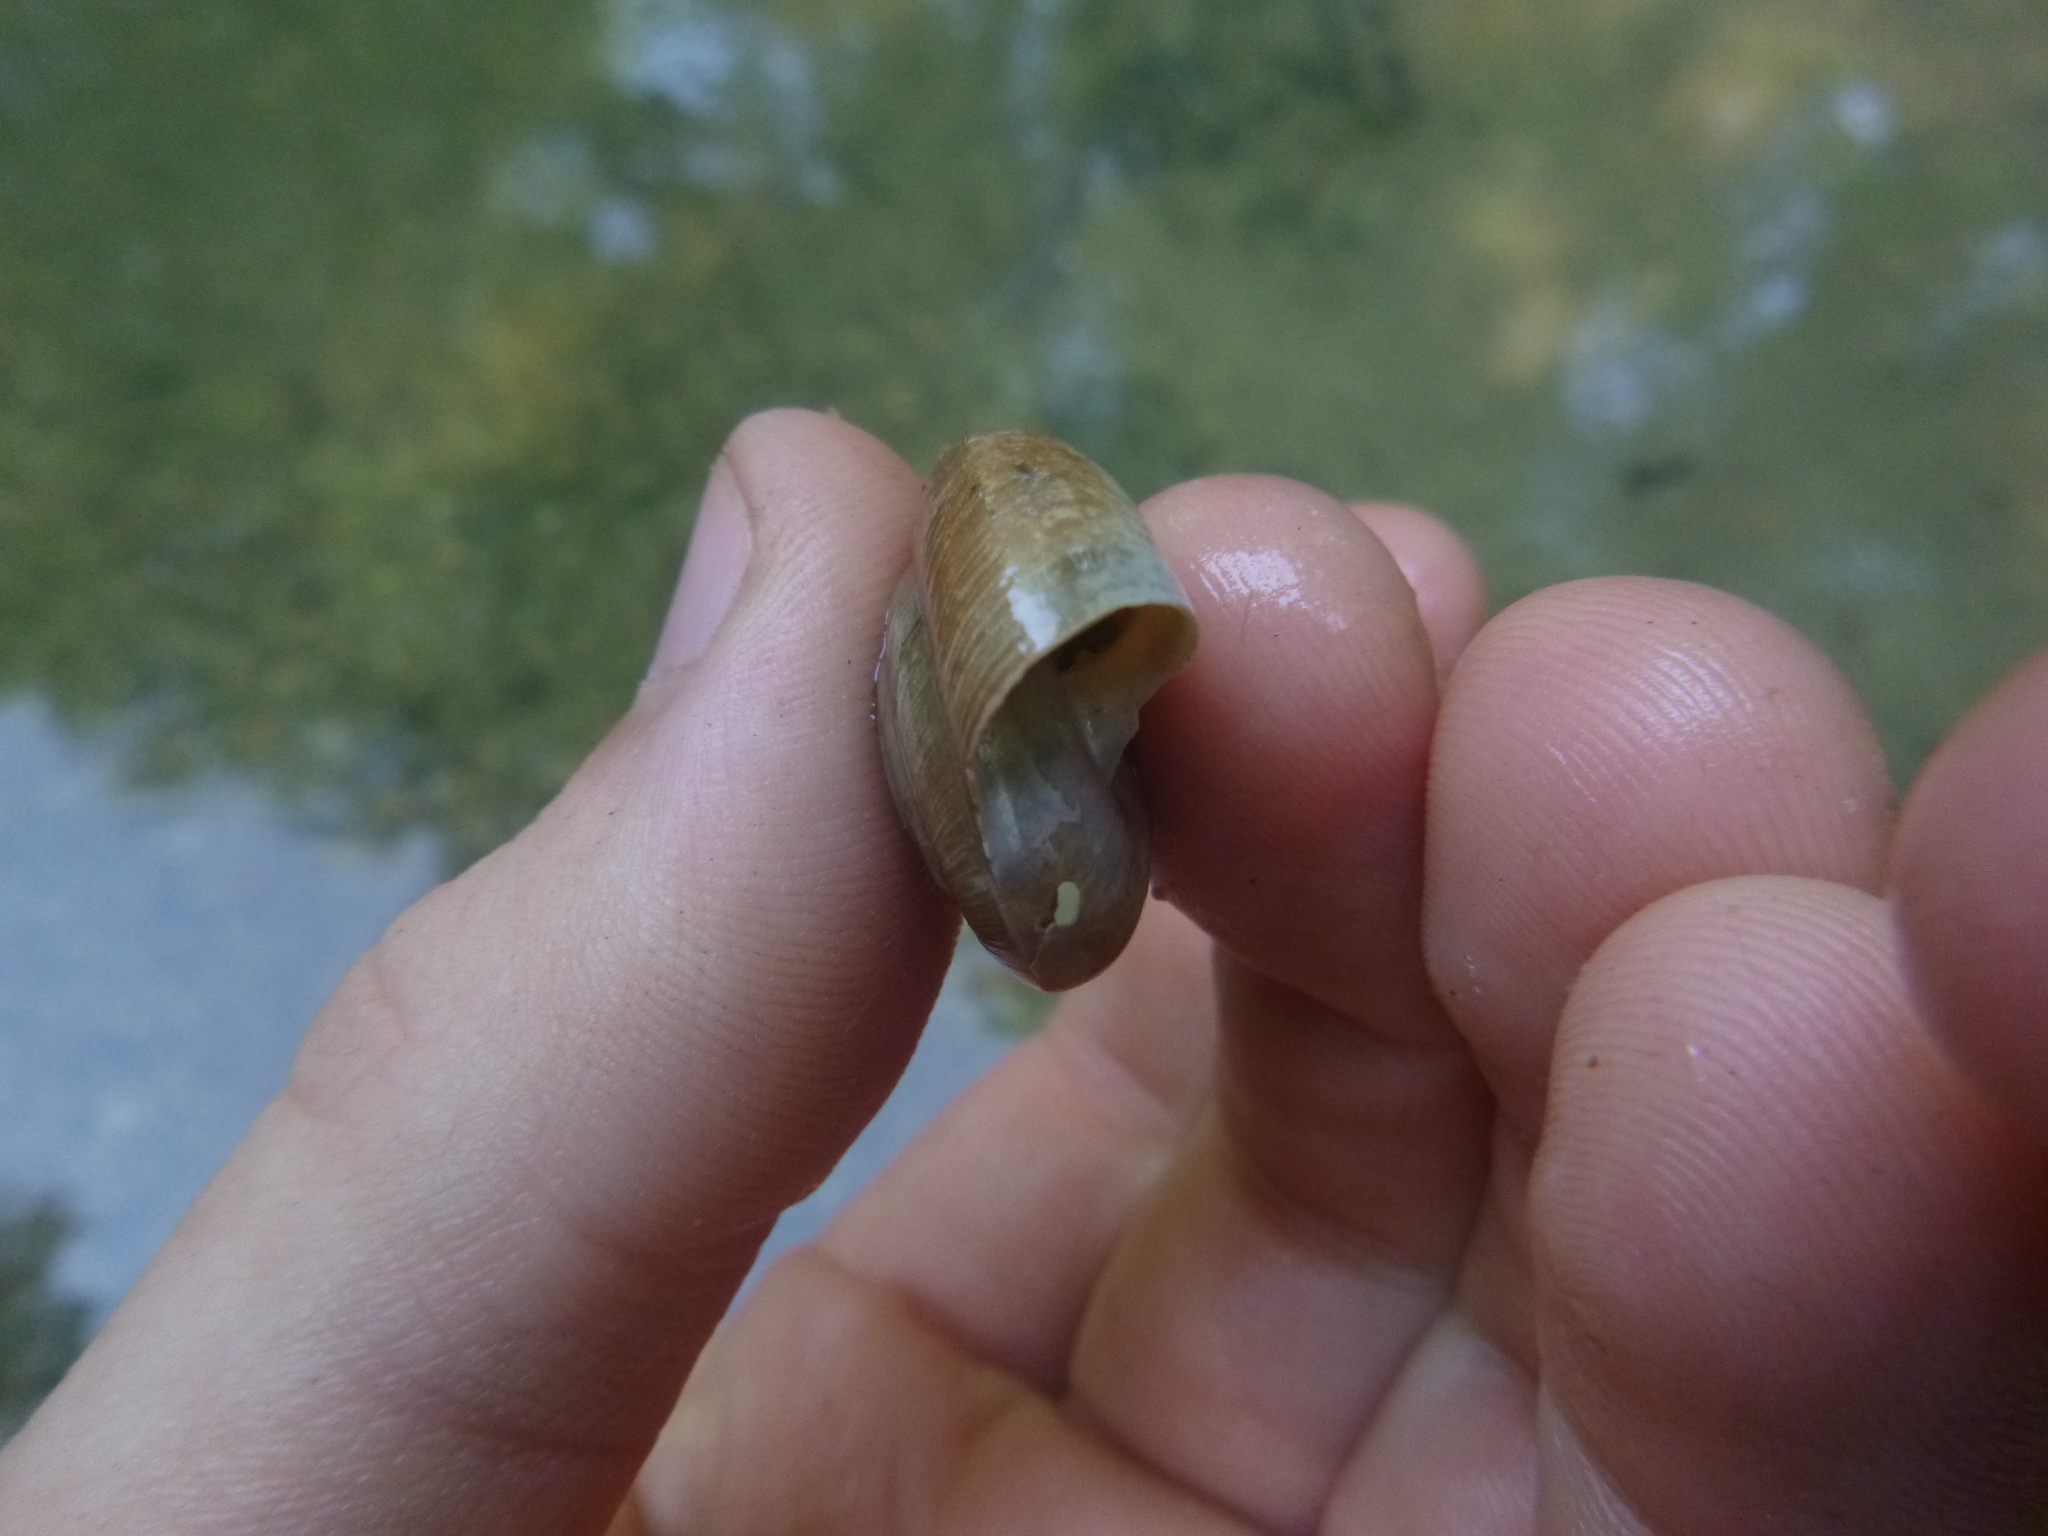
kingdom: Animalia
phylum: Mollusca
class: Gastropoda
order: Stylommatophora
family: Zonitidae
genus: Aegopis
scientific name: Aegopis verticillus
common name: Giant glass snail
